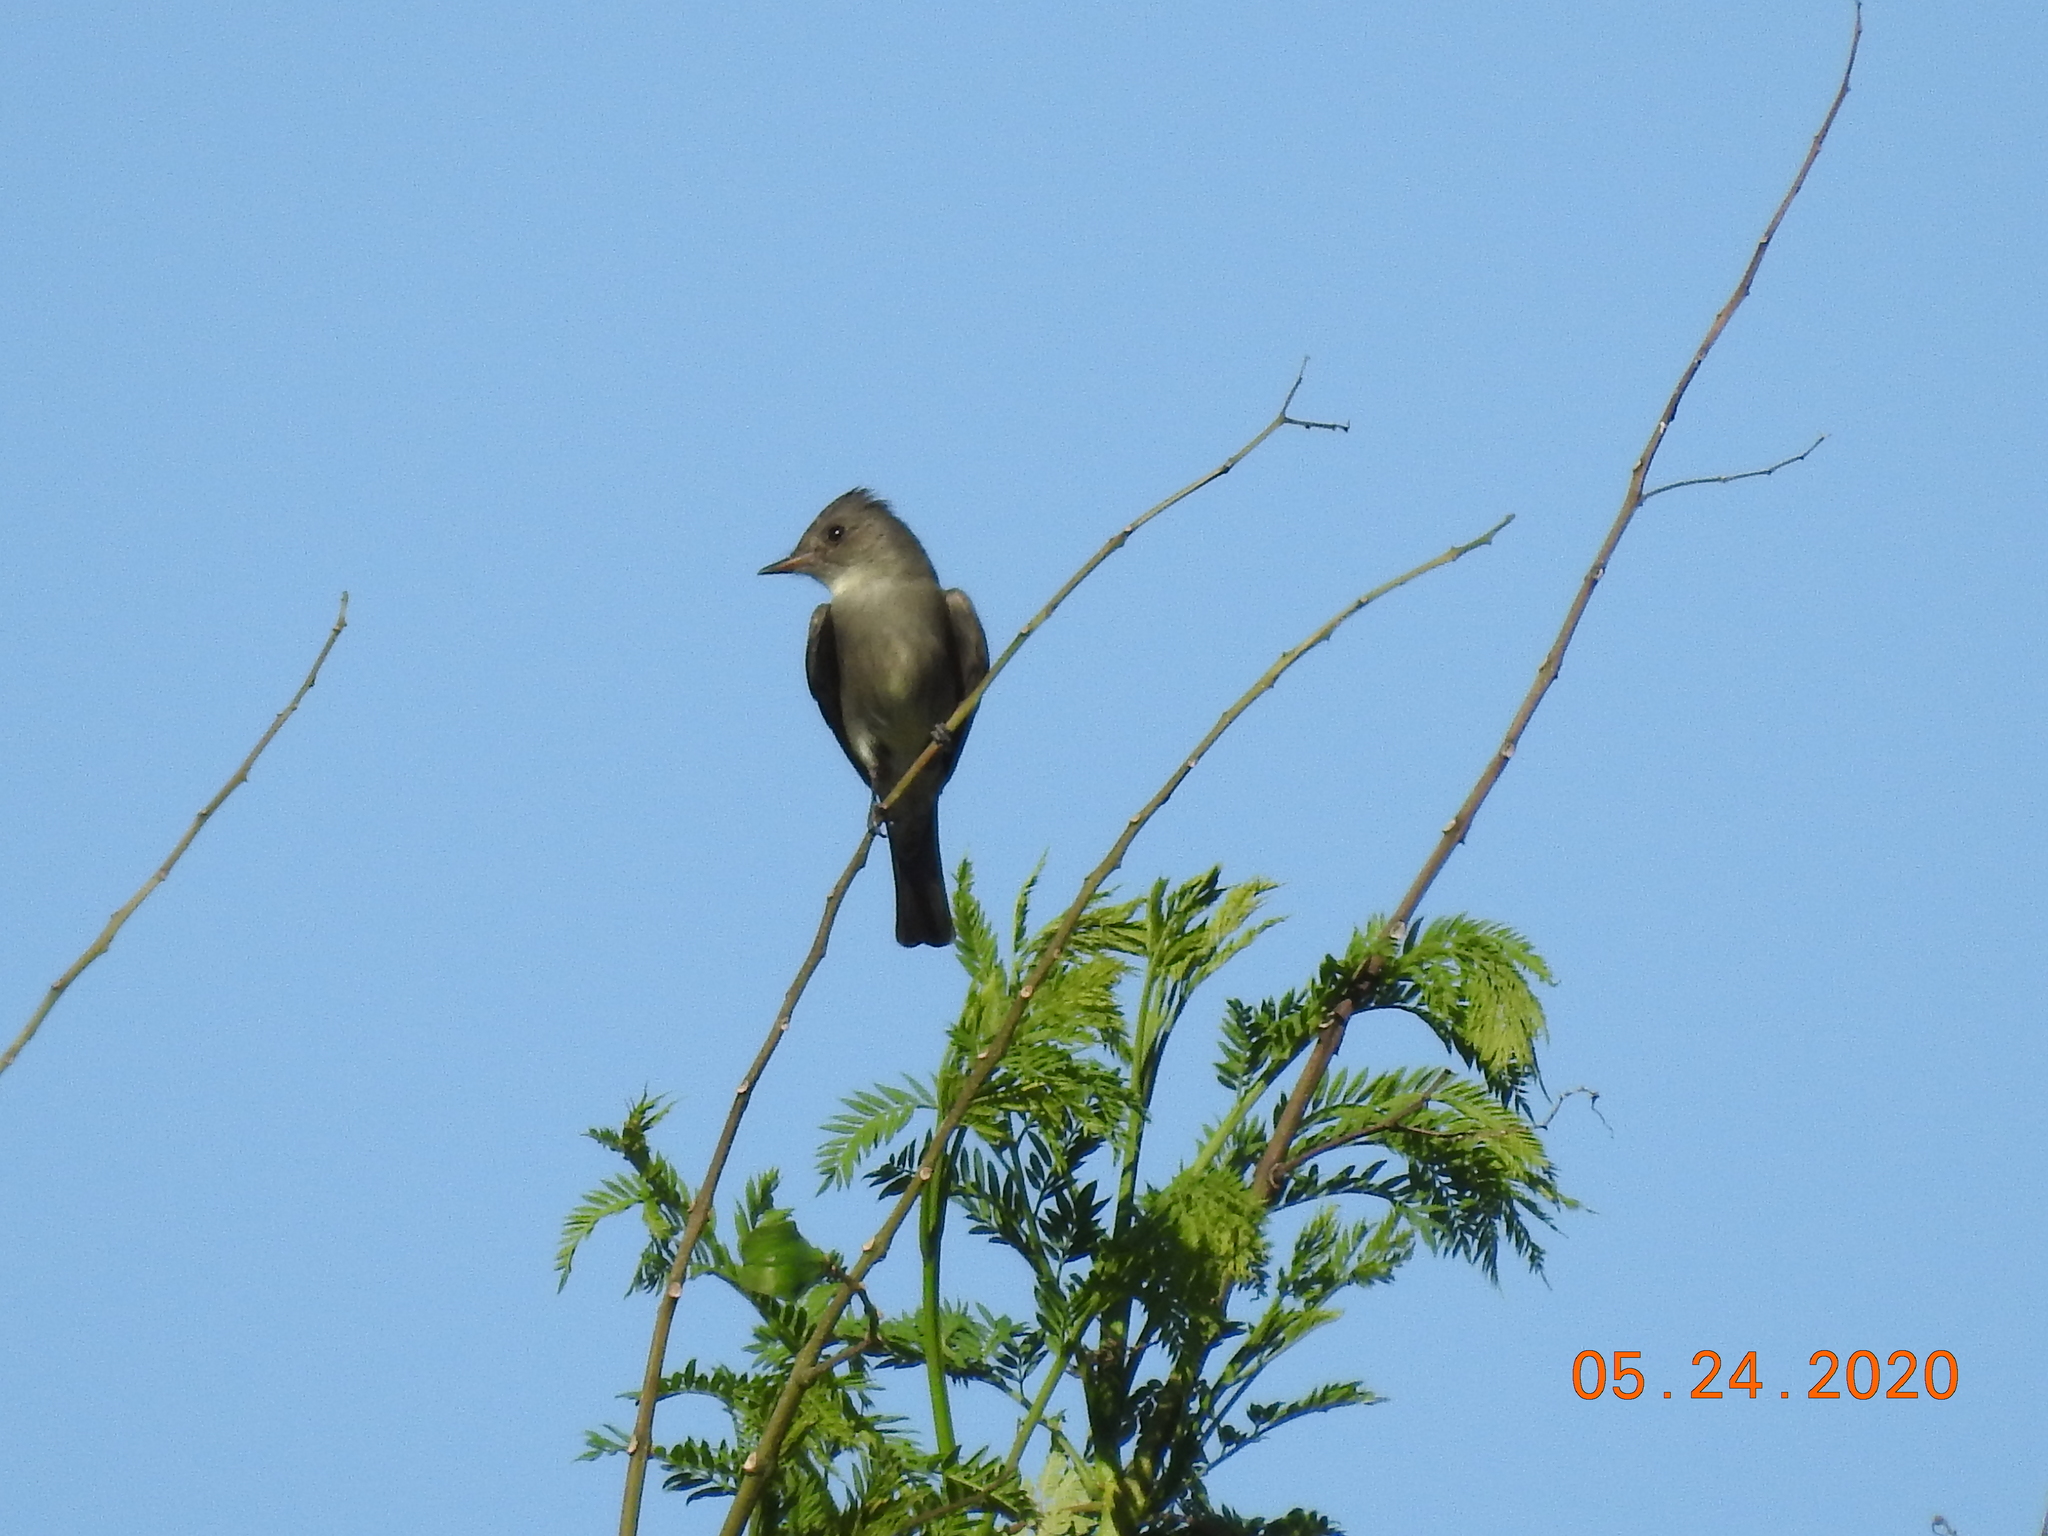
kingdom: Animalia
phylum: Chordata
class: Aves
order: Passeriformes
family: Tyrannidae
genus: Contopus
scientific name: Contopus sordidulus
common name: Western wood-pewee
